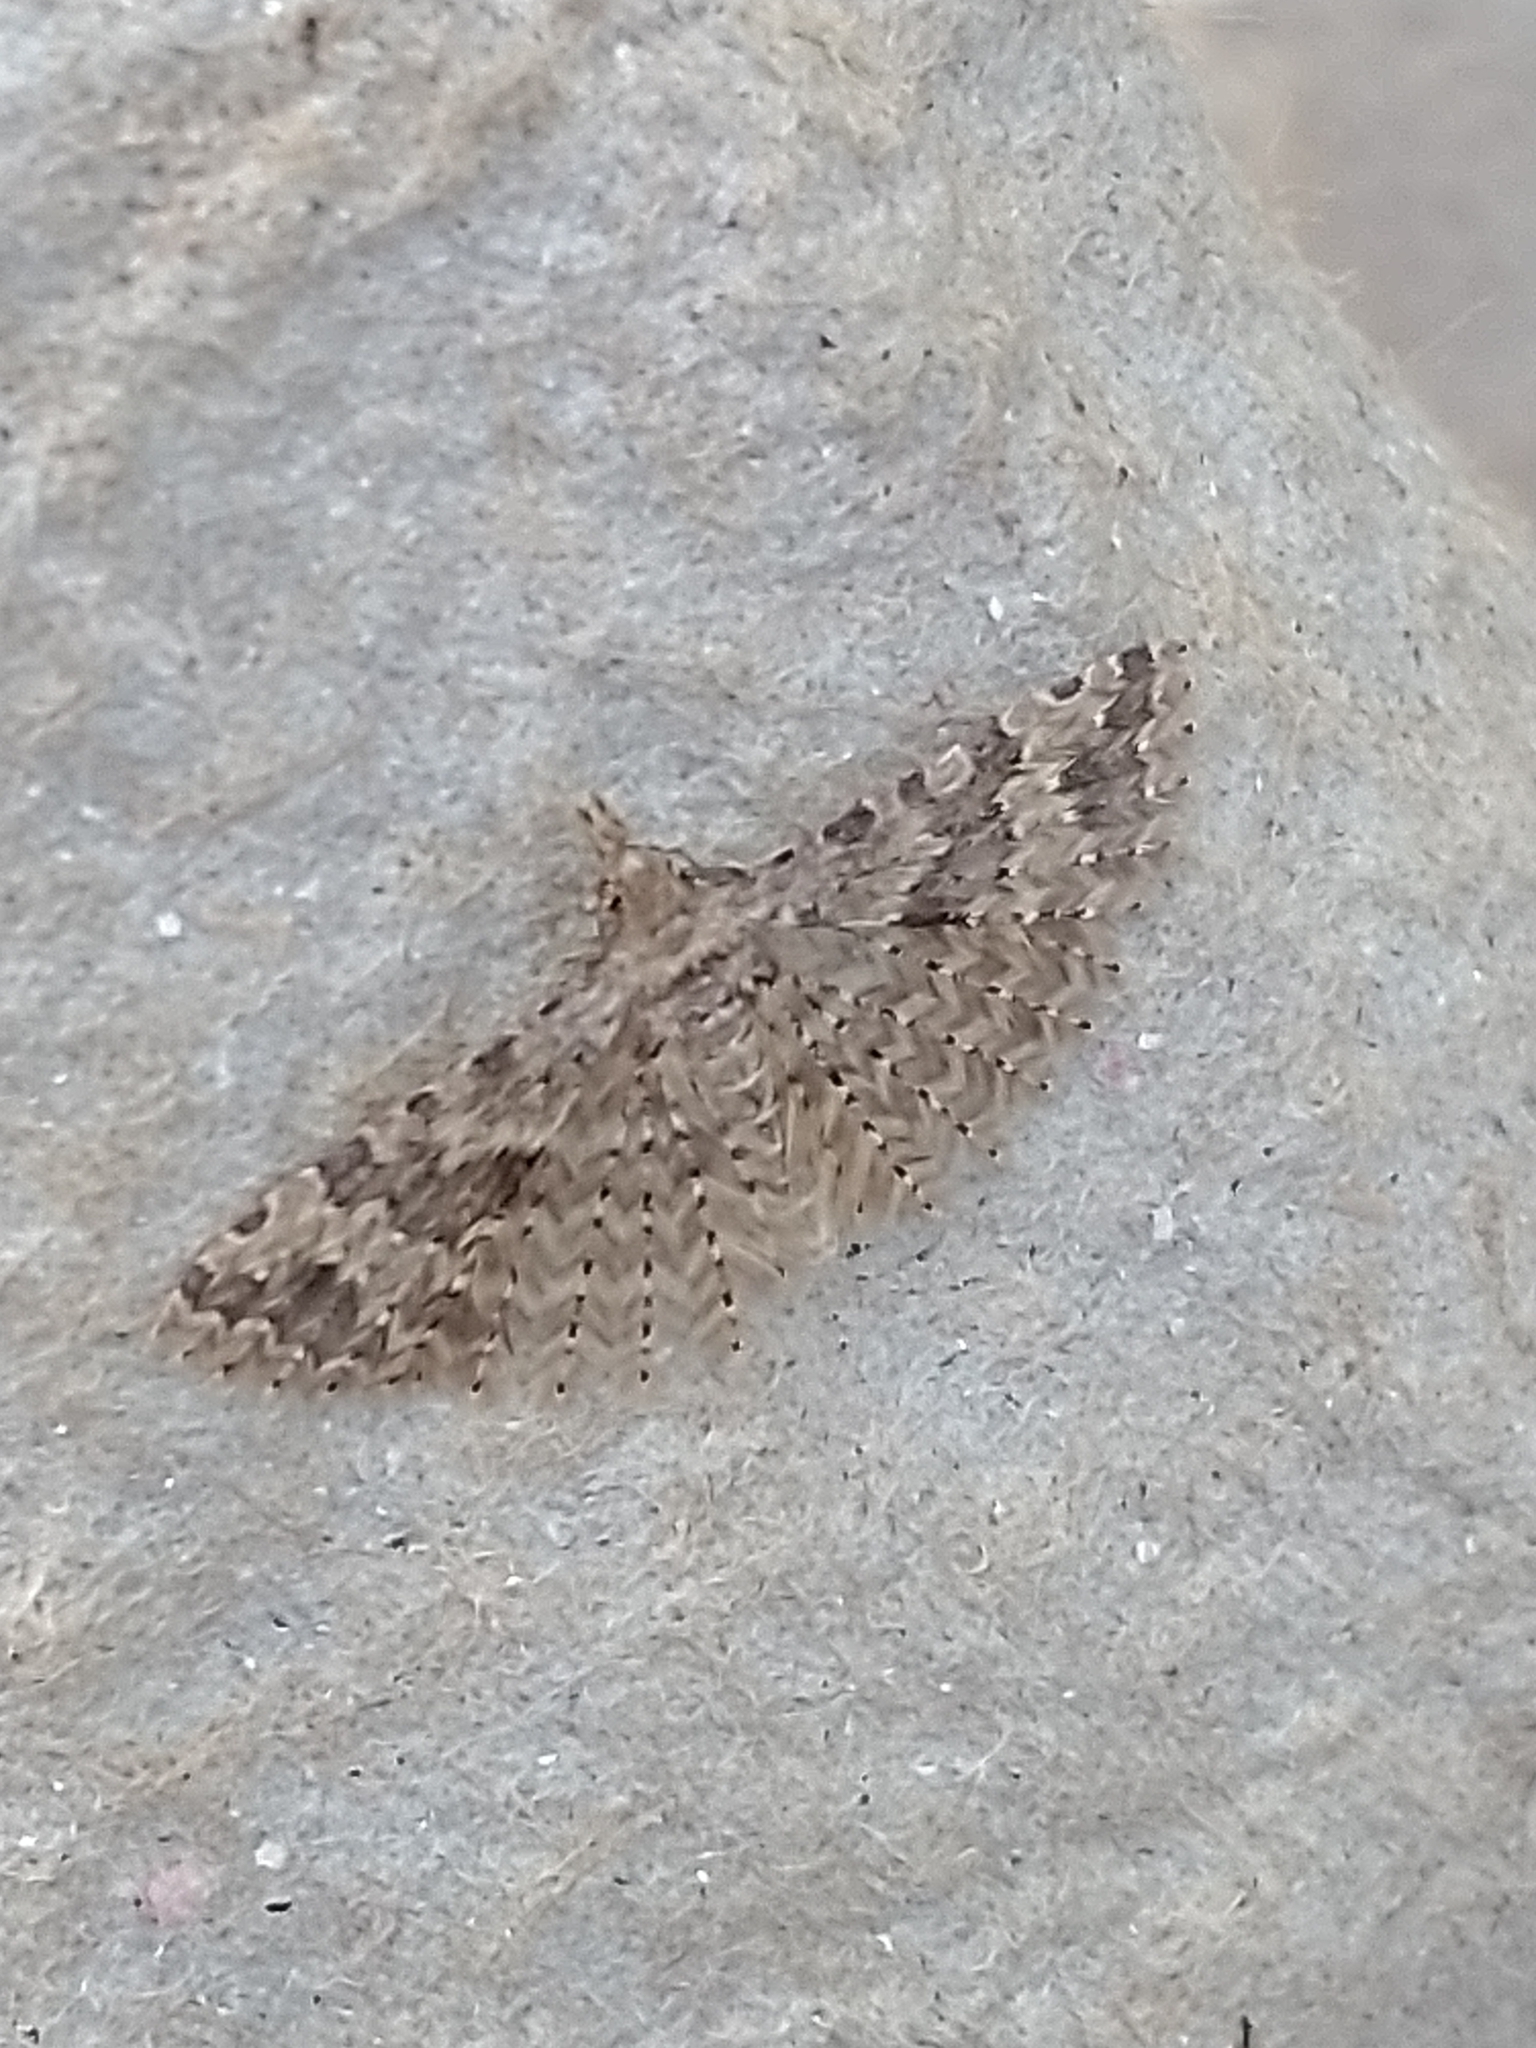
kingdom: Animalia
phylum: Arthropoda
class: Insecta
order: Lepidoptera
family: Alucitidae
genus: Alucita
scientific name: Alucita hexadactyla
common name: Twenty-plume moth
